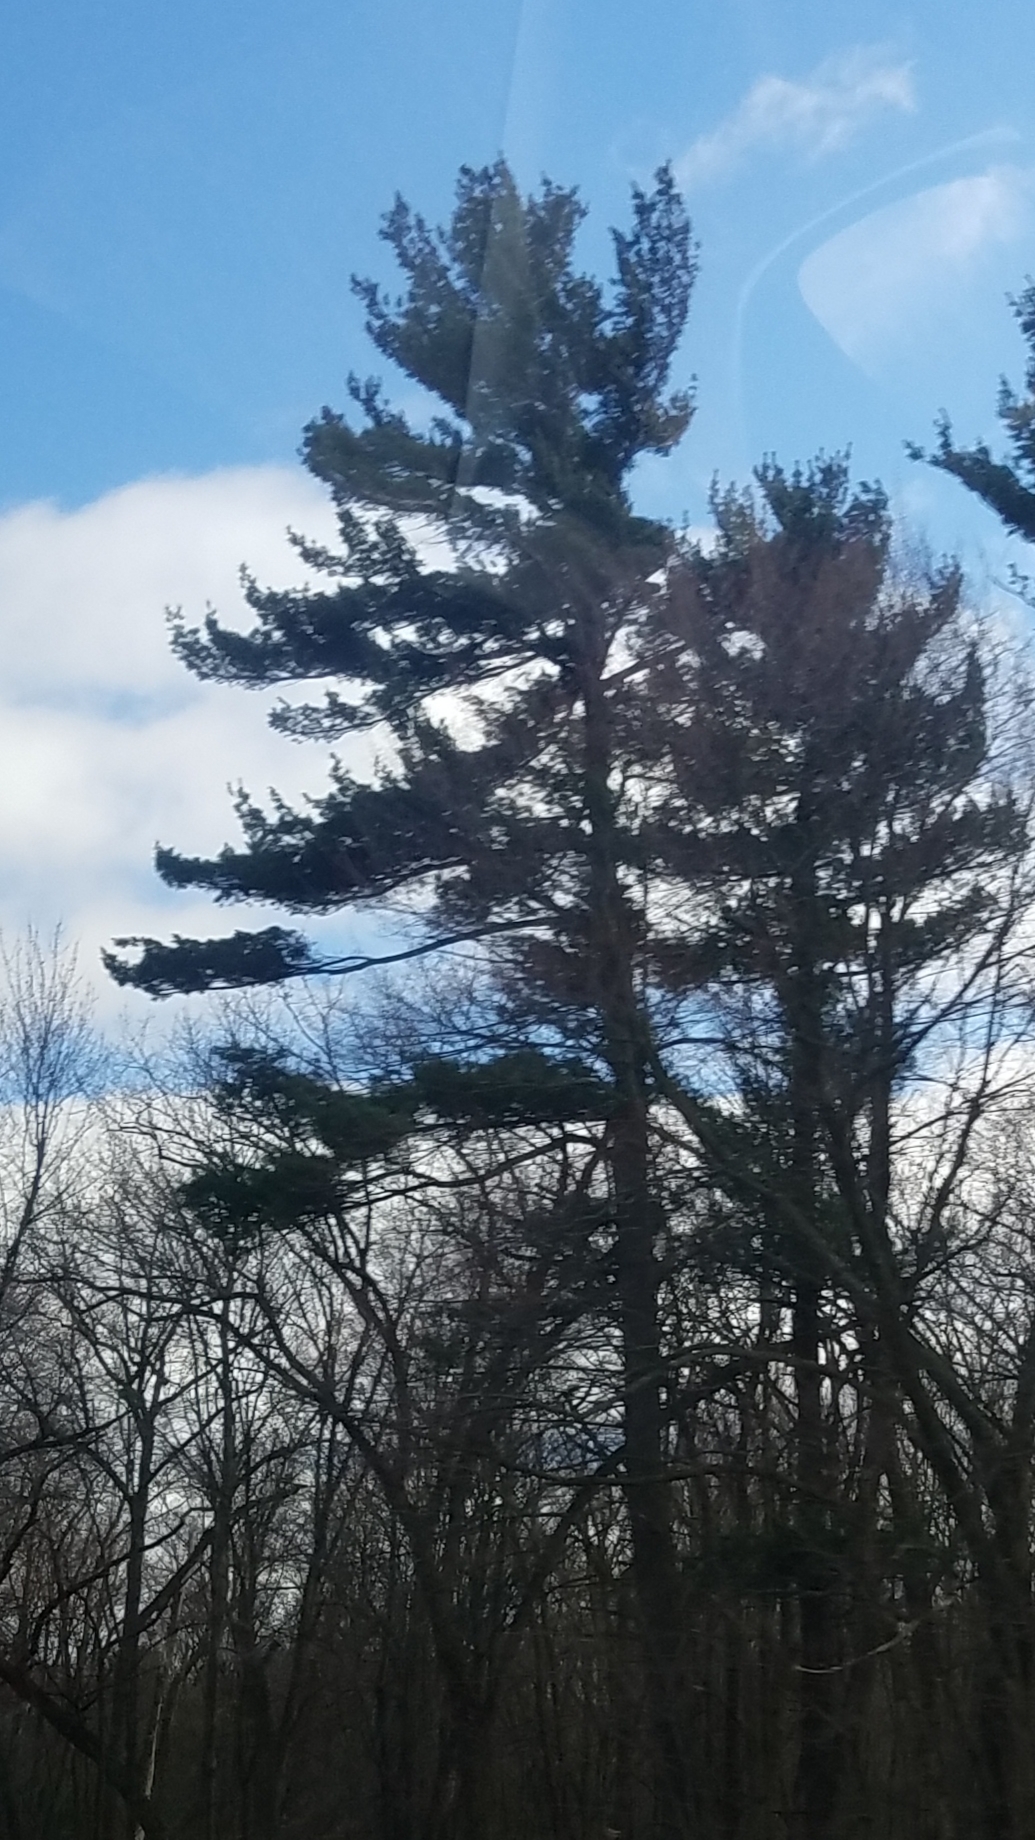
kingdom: Plantae
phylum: Tracheophyta
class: Pinopsida
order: Pinales
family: Pinaceae
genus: Pinus
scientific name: Pinus strobus
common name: Weymouth pine
